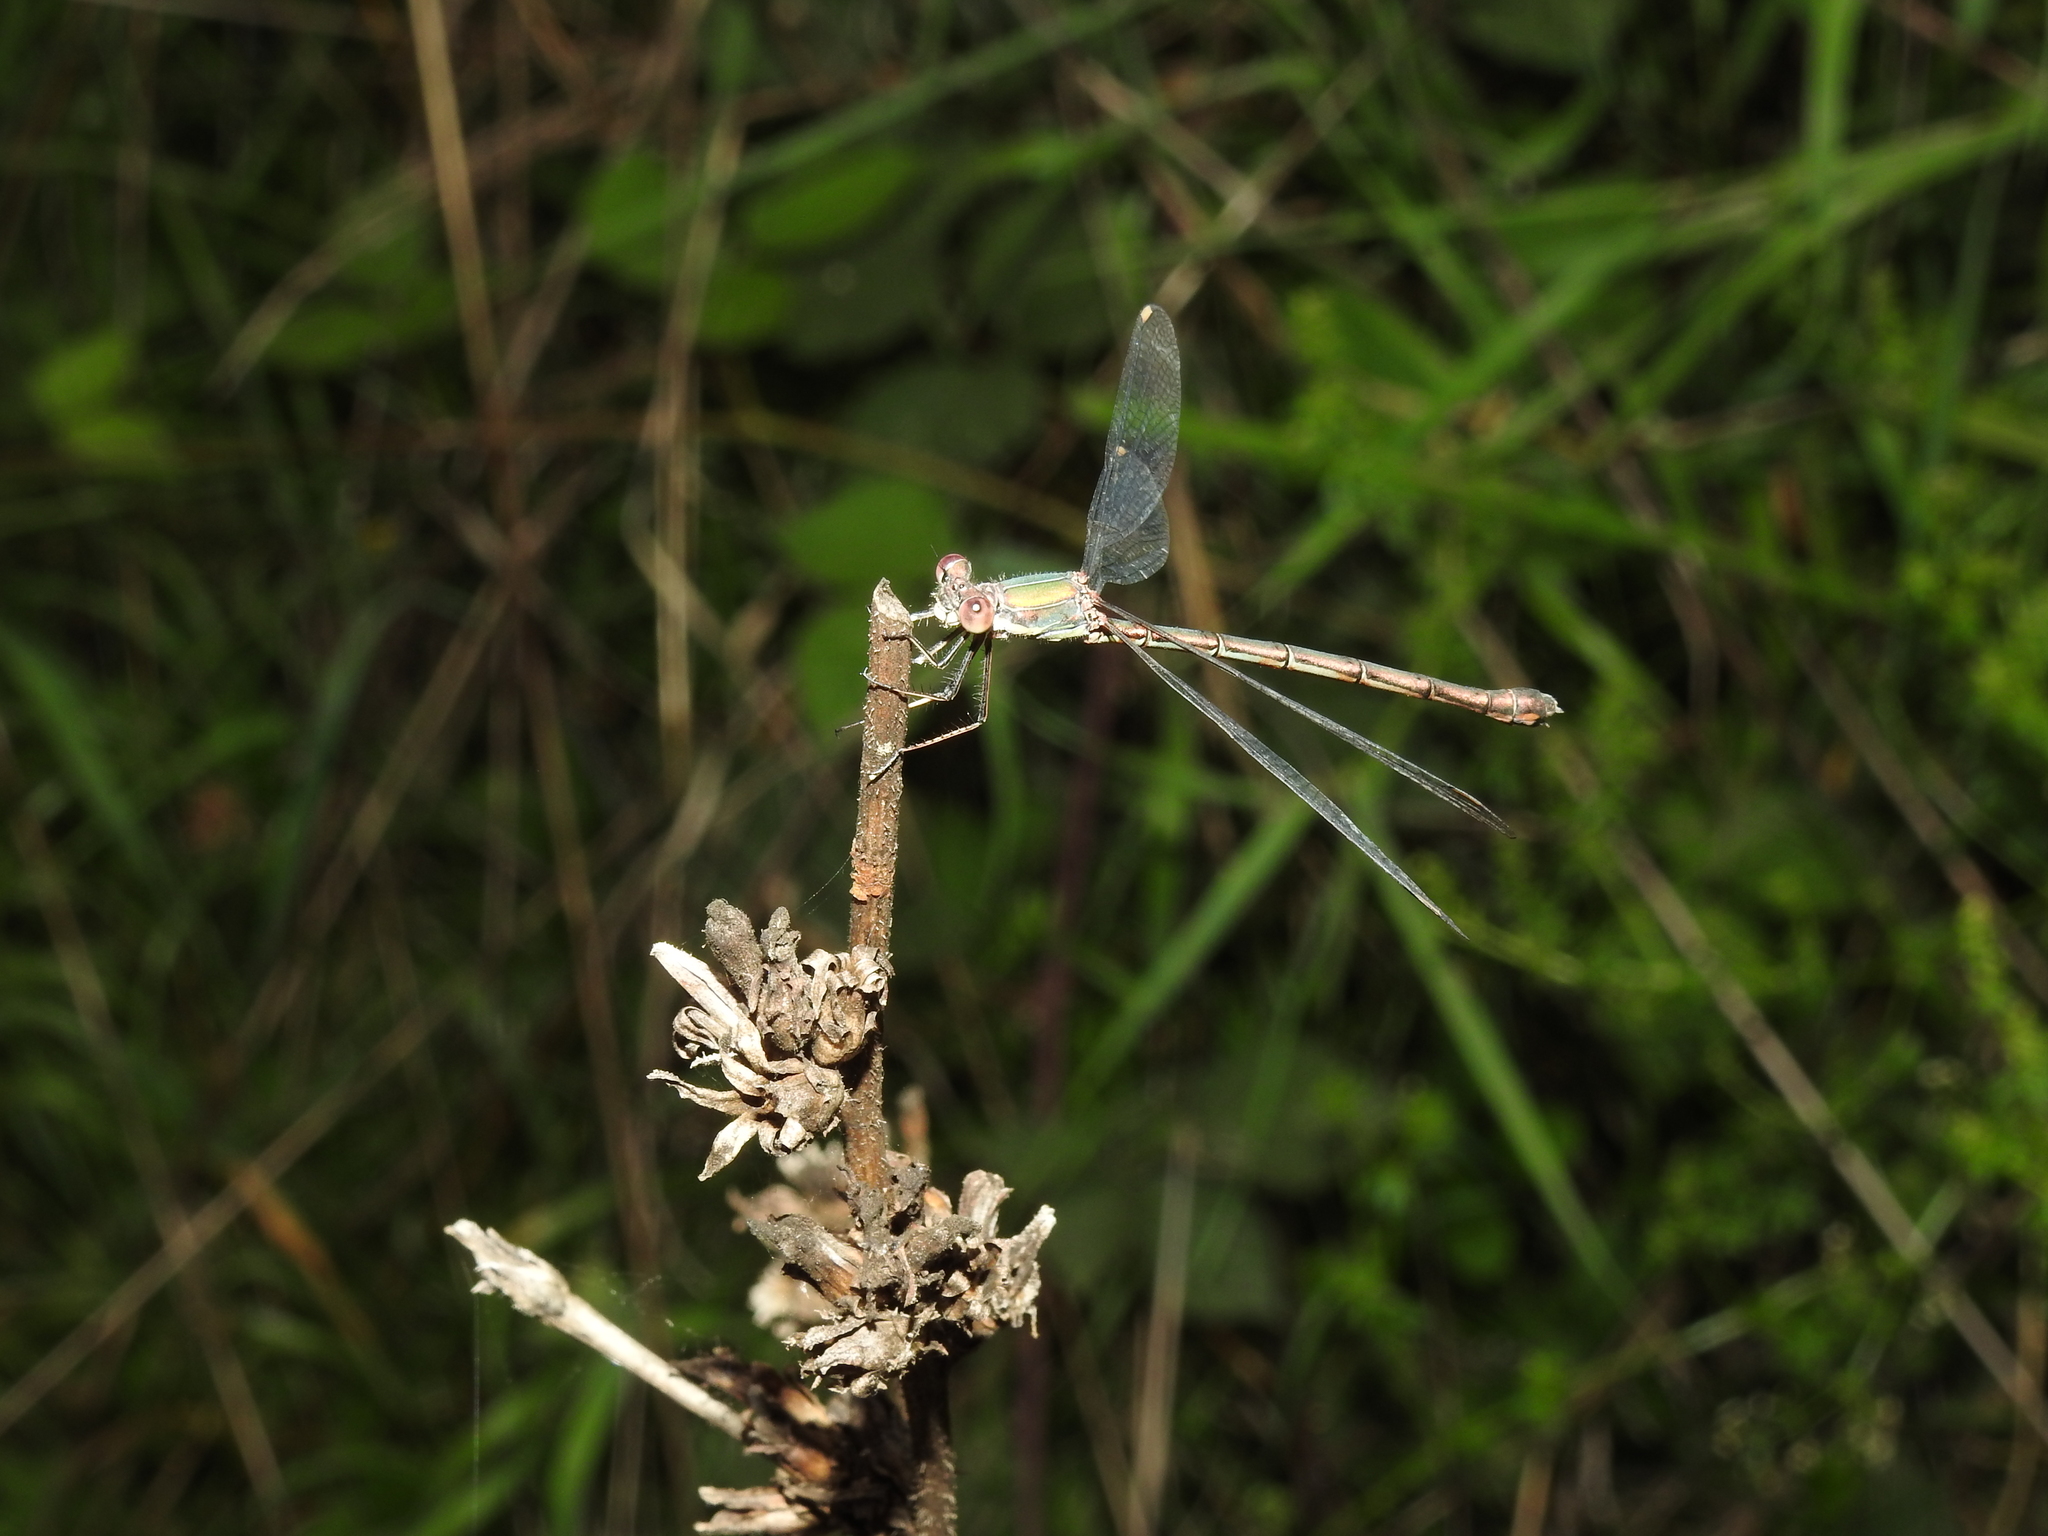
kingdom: Animalia
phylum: Arthropoda
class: Insecta
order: Odonata
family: Lestidae
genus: Chalcolestes
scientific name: Chalcolestes viridis
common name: Green emerald damselfly
